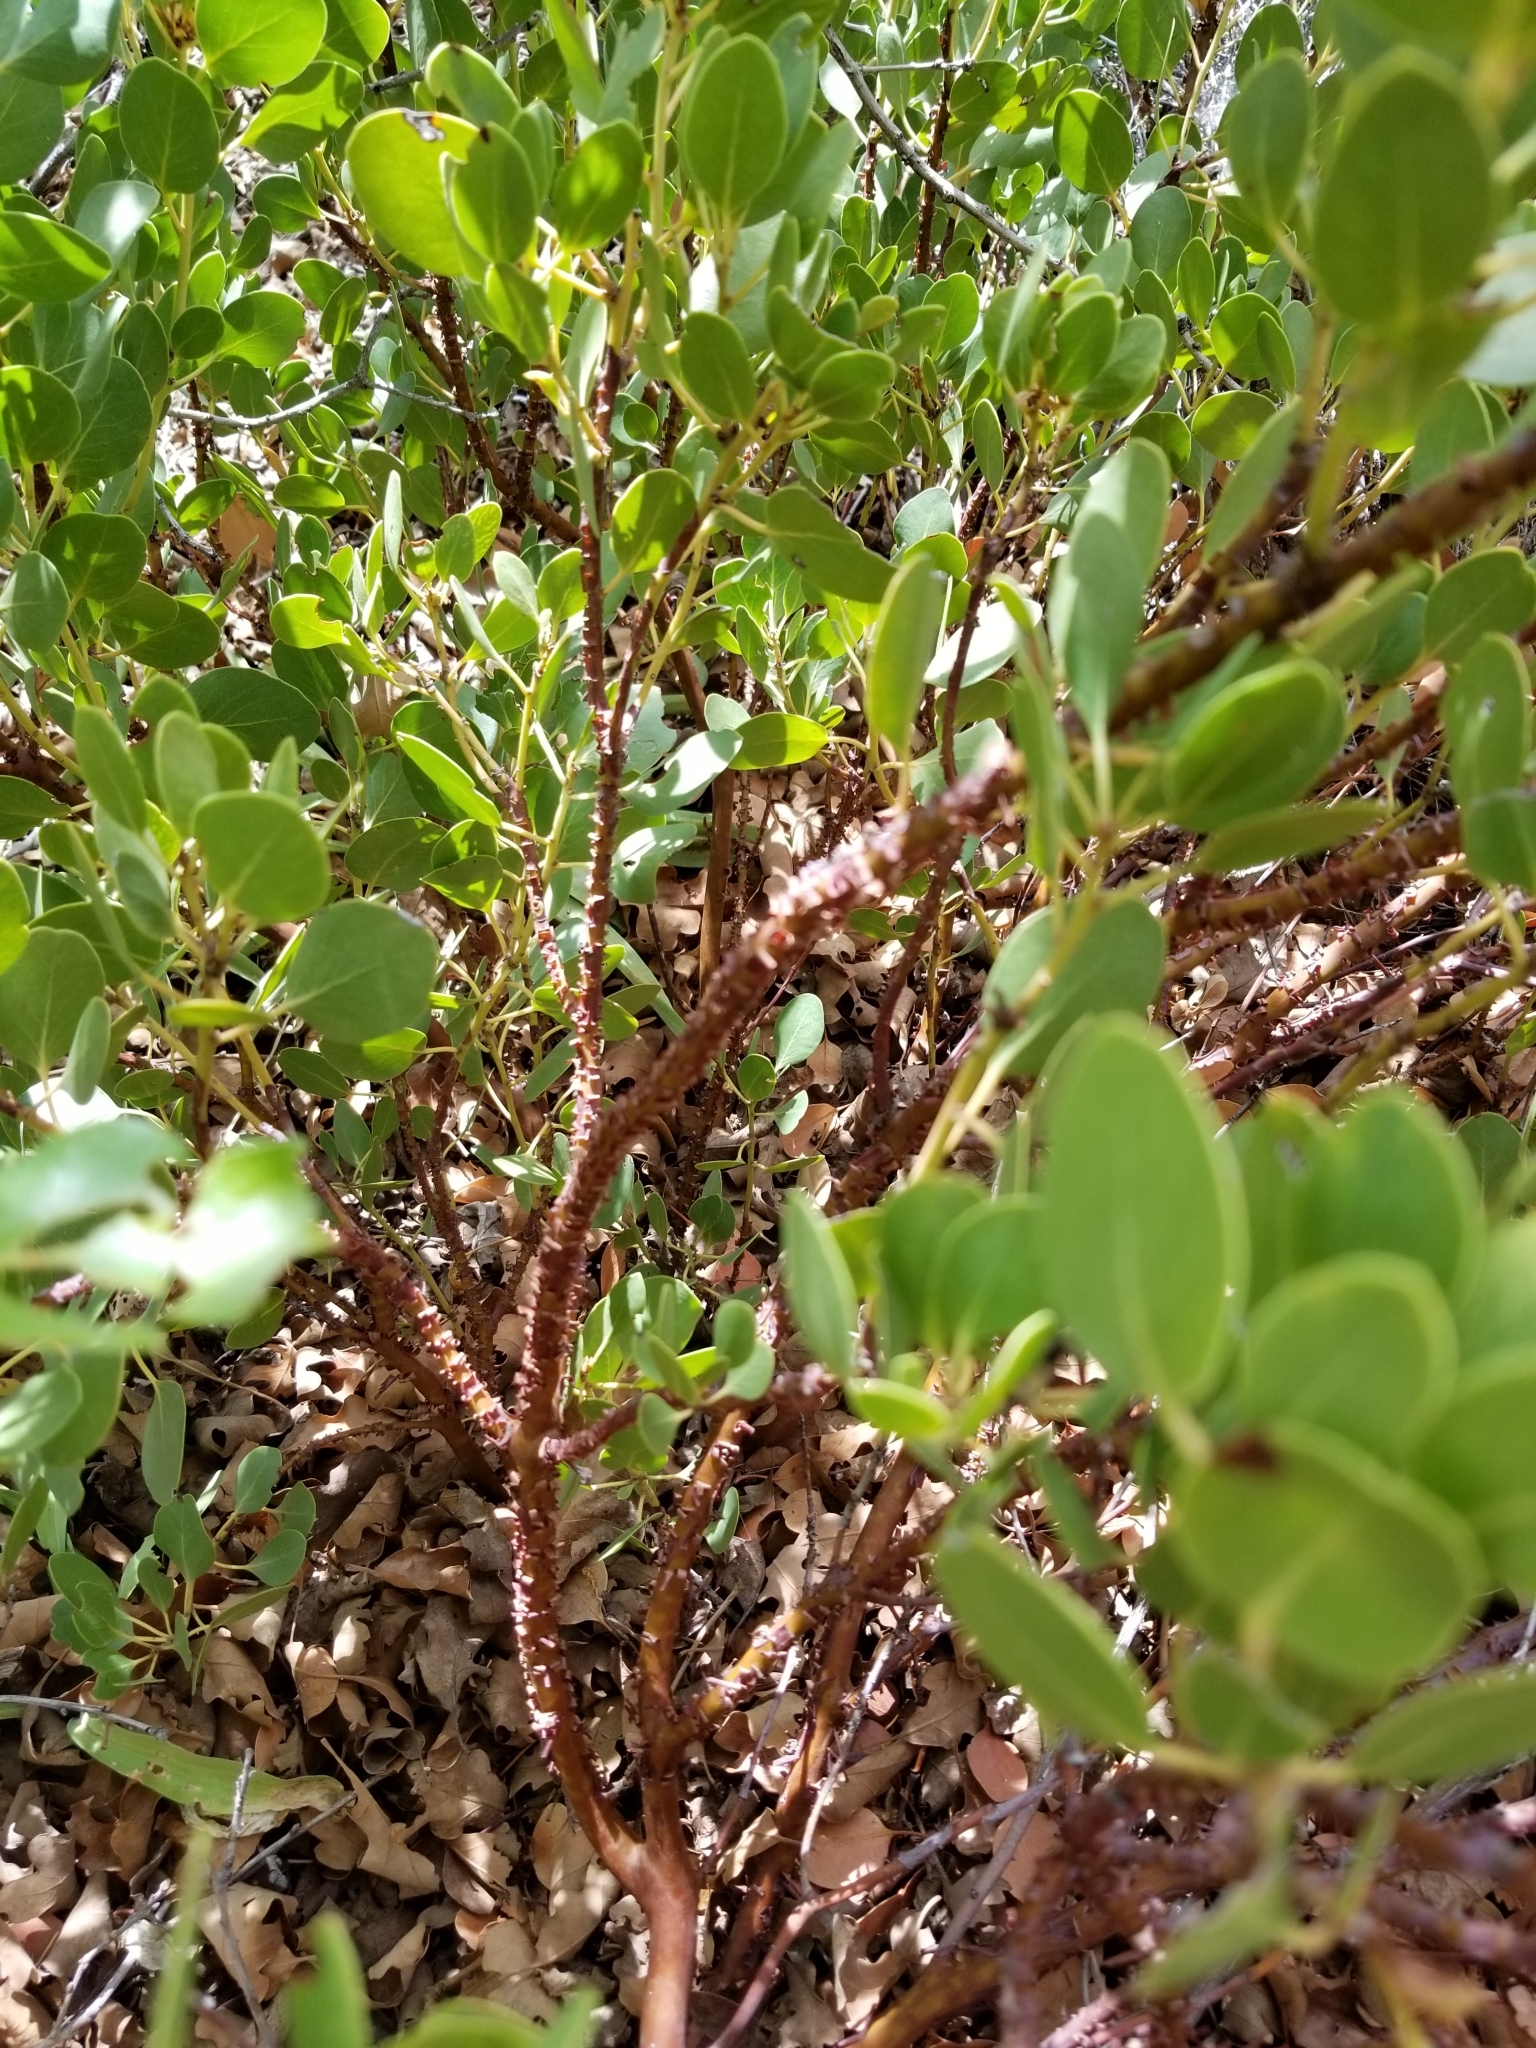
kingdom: Plantae
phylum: Tracheophyta
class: Magnoliopsida
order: Ericales
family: Ericaceae
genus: Arctostaphylos
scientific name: Arctostaphylos patula
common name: Green-leaf manzanita
